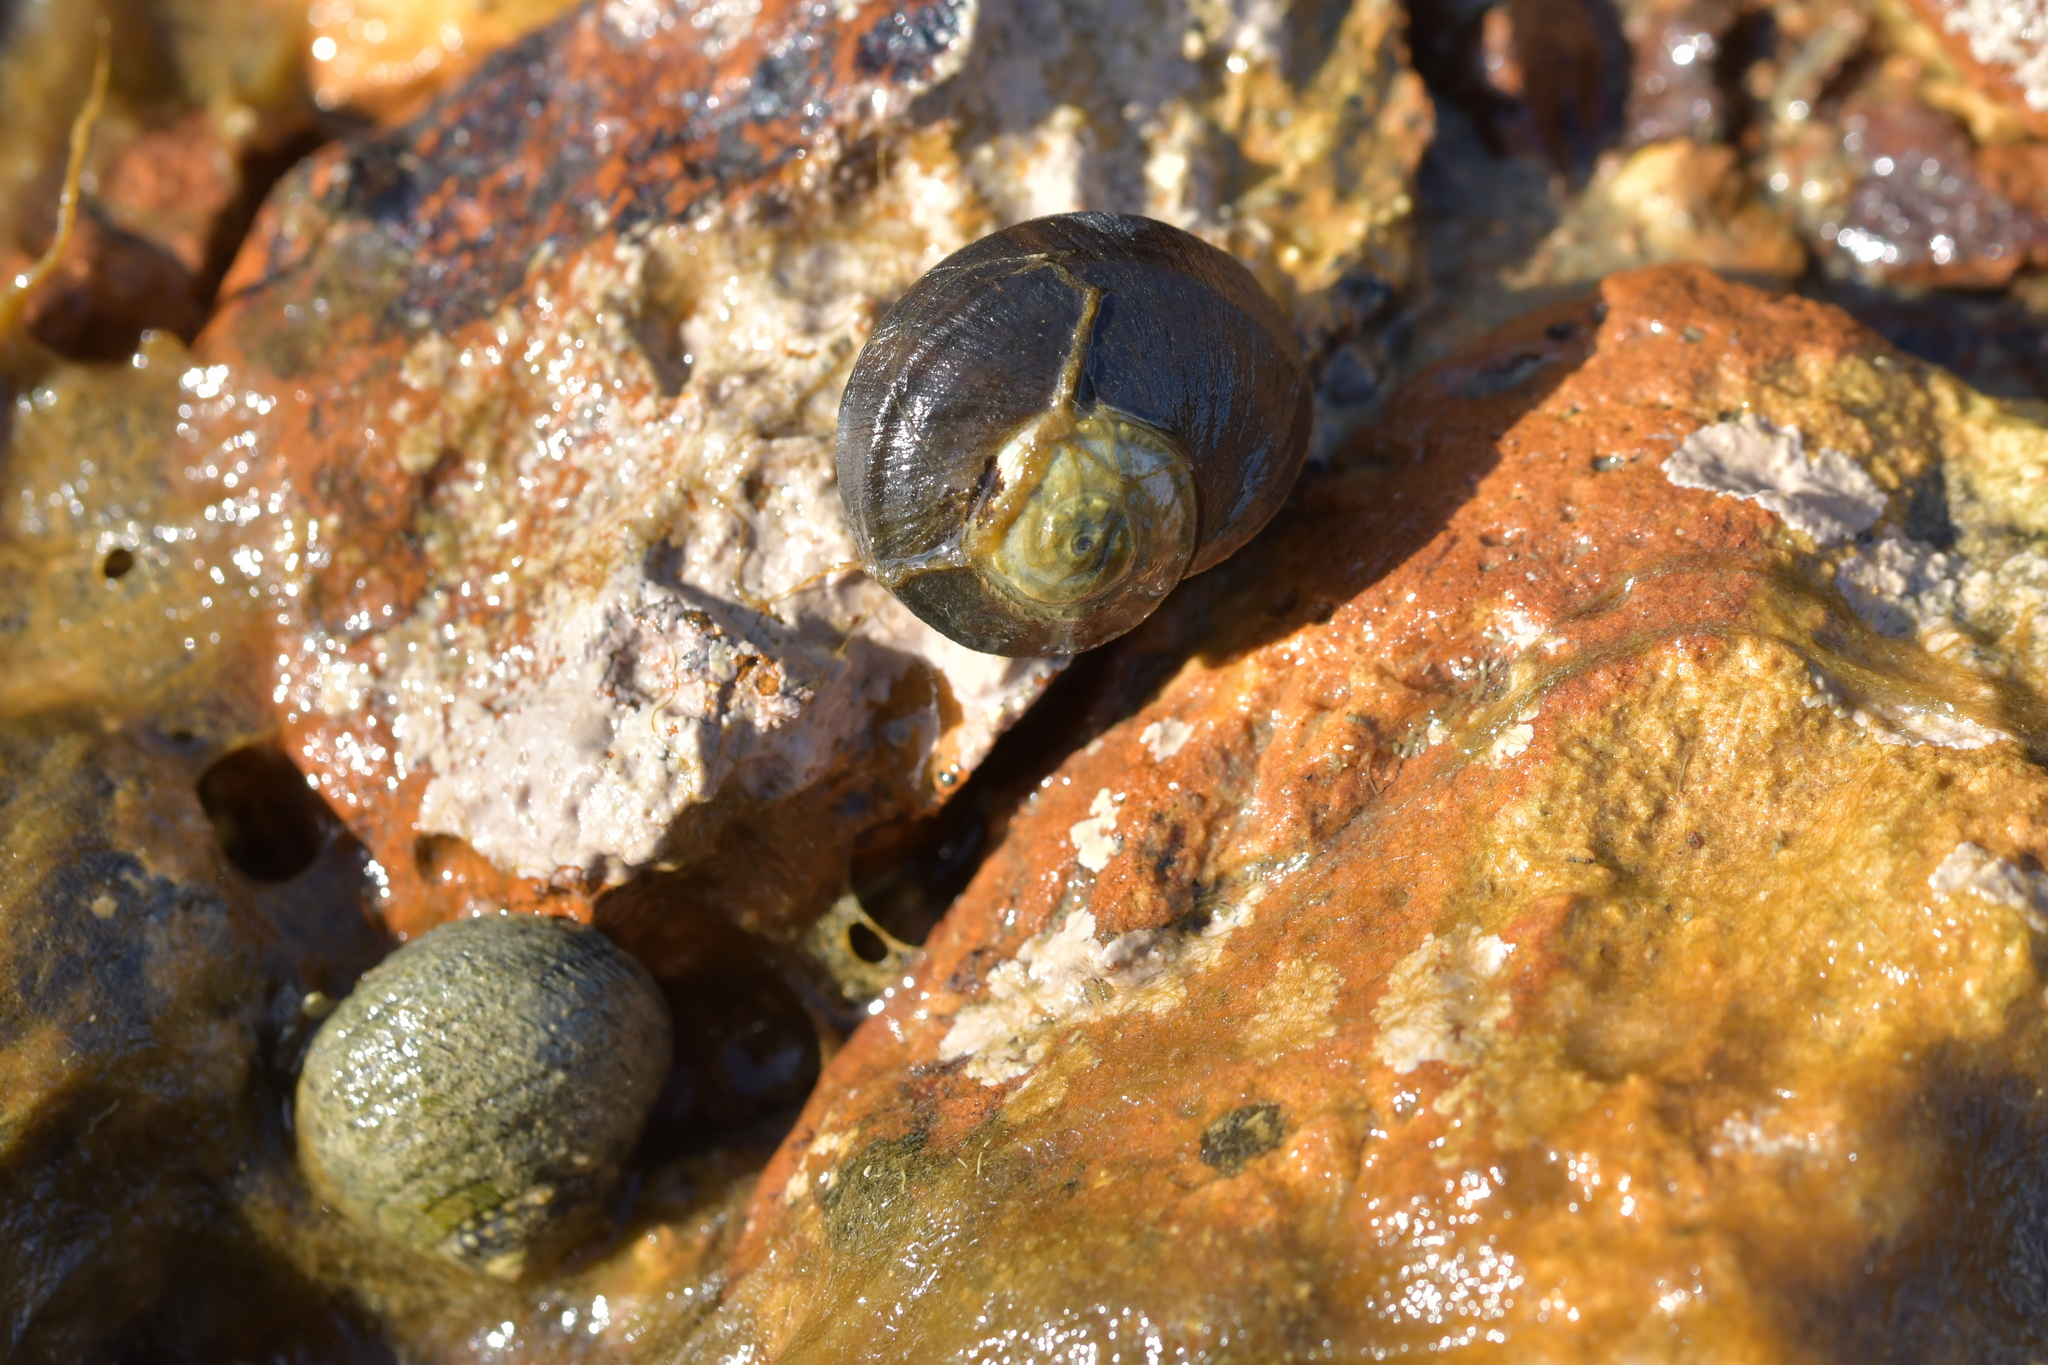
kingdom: Animalia
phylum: Mollusca
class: Gastropoda
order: Trochida
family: Trochidae
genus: Diloma
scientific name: Diloma subrostratum
